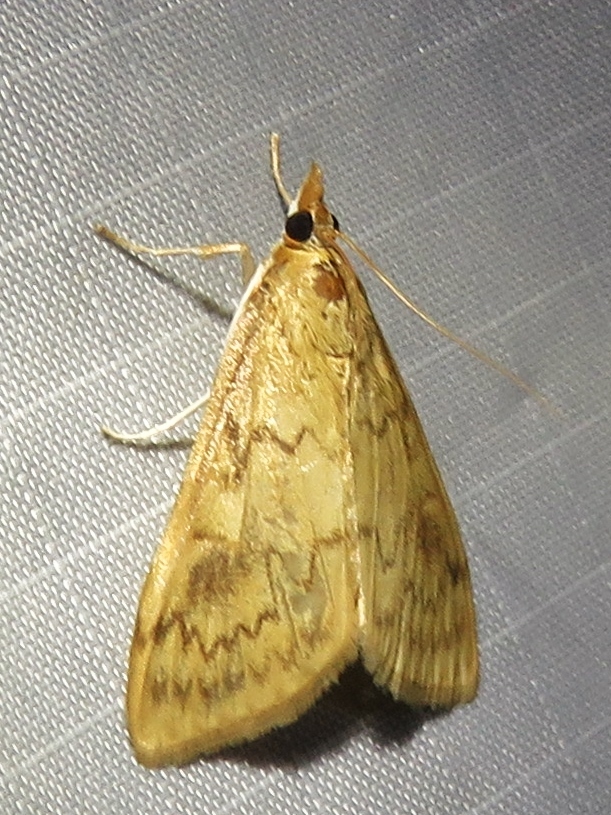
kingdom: Animalia
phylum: Arthropoda
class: Insecta
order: Lepidoptera
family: Crambidae
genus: Ostrinia
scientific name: Ostrinia penitalis
